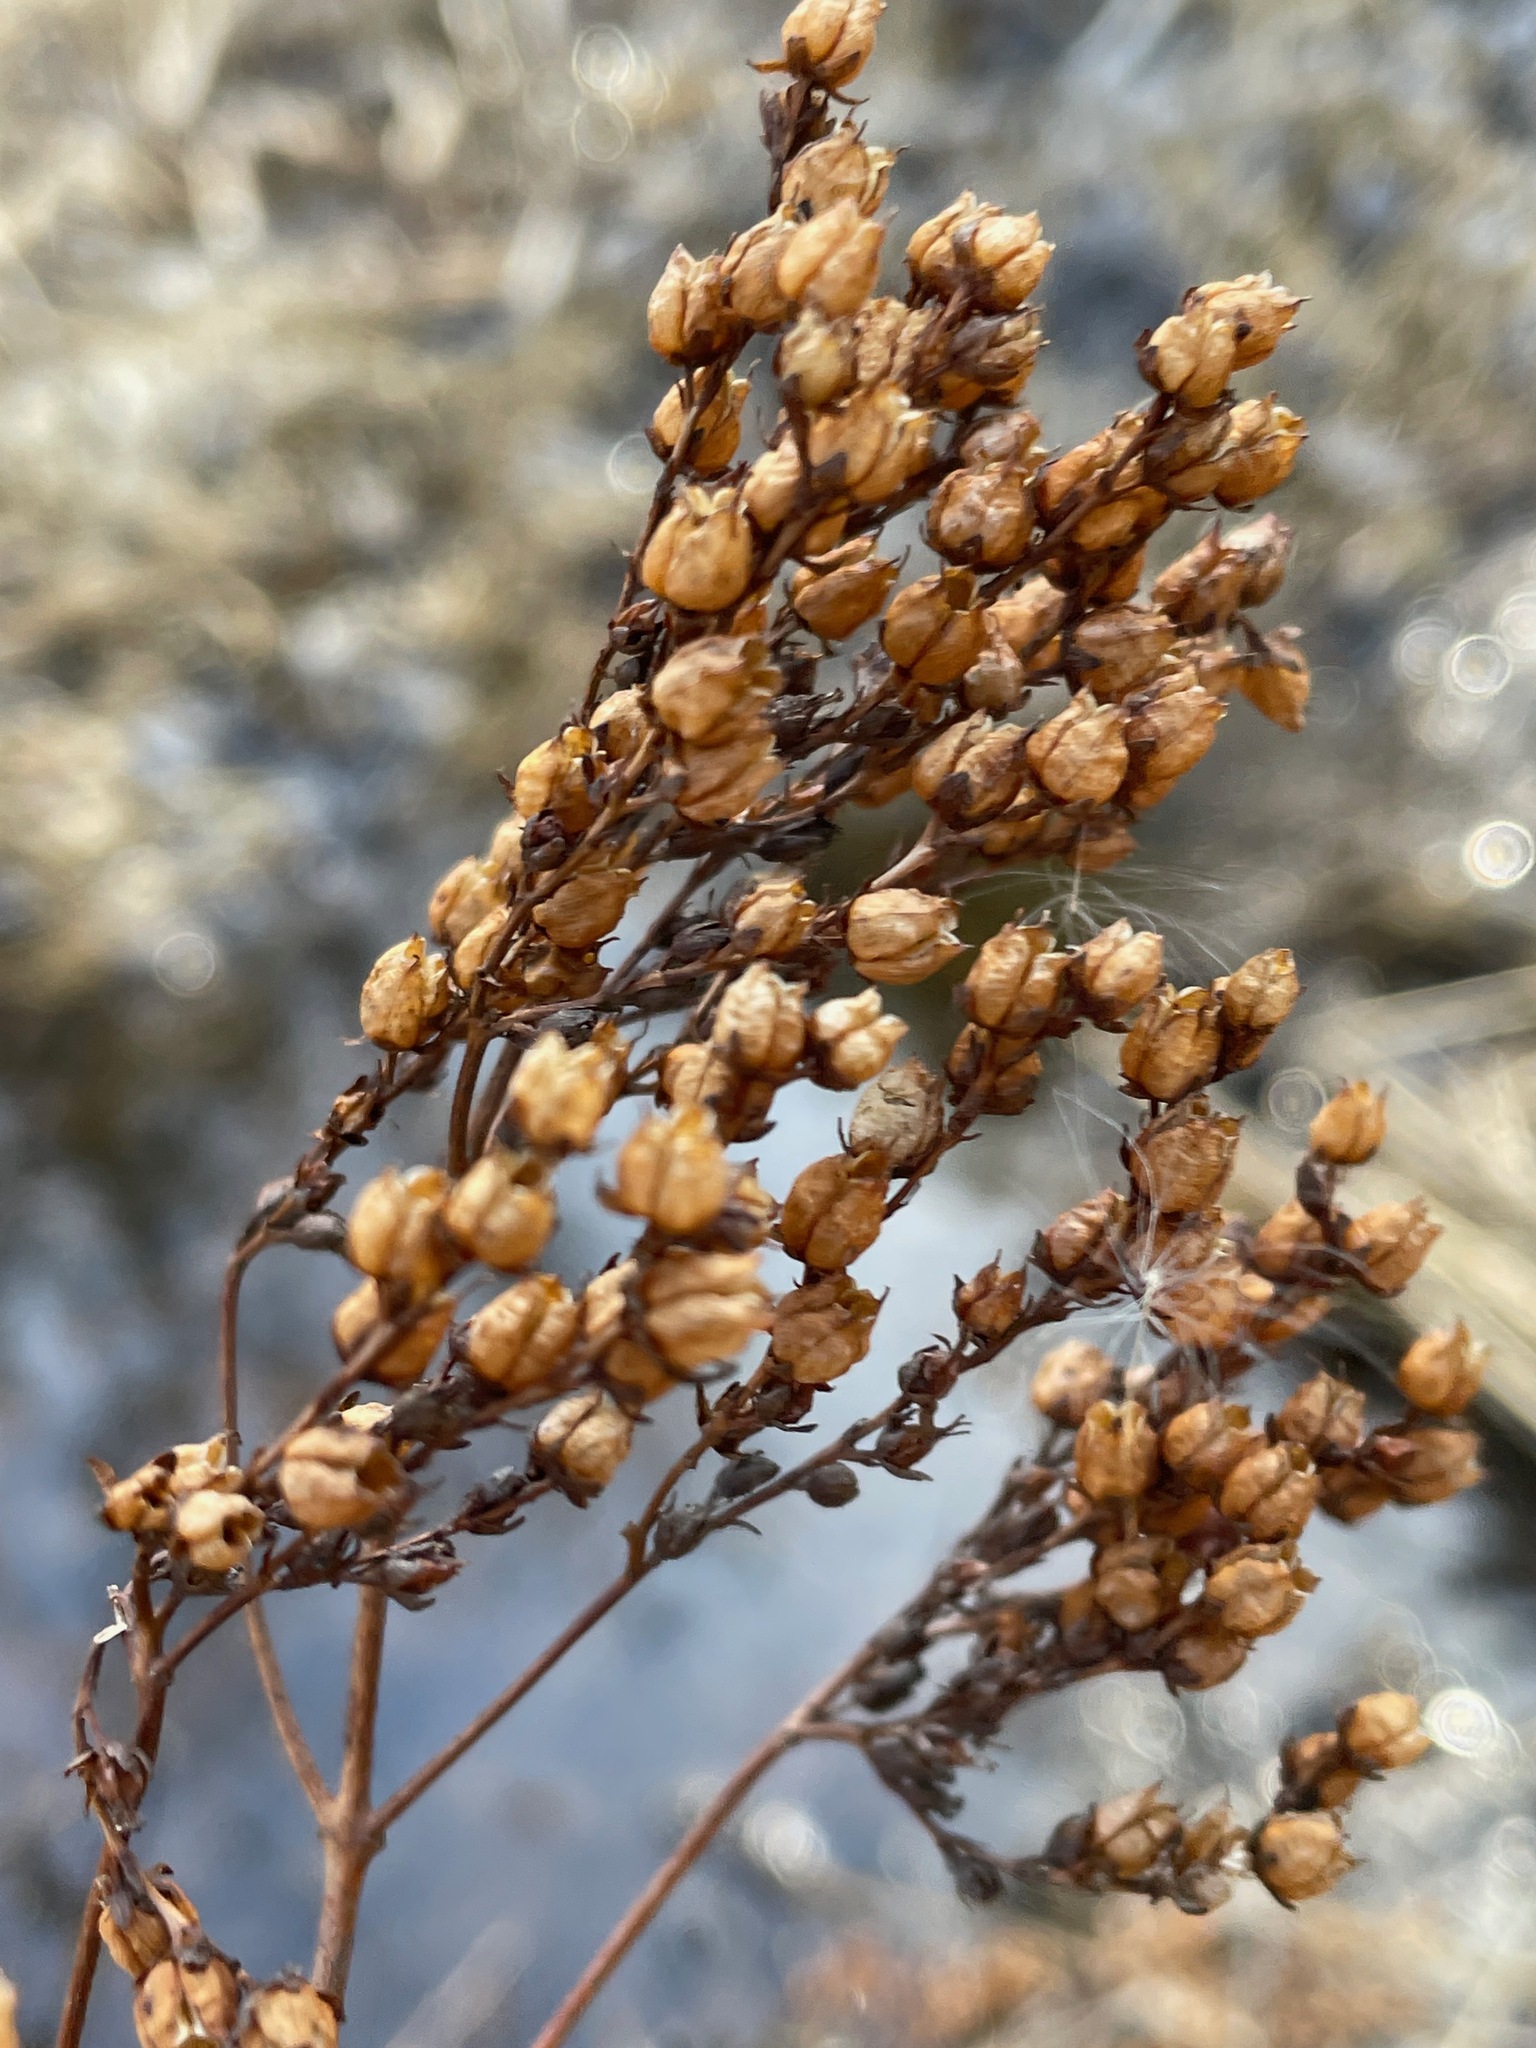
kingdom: Plantae
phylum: Tracheophyta
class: Magnoliopsida
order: Malpighiales
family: Hypericaceae
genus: Hypericum
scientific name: Hypericum punctatum
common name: Spotted st. john's-wort
